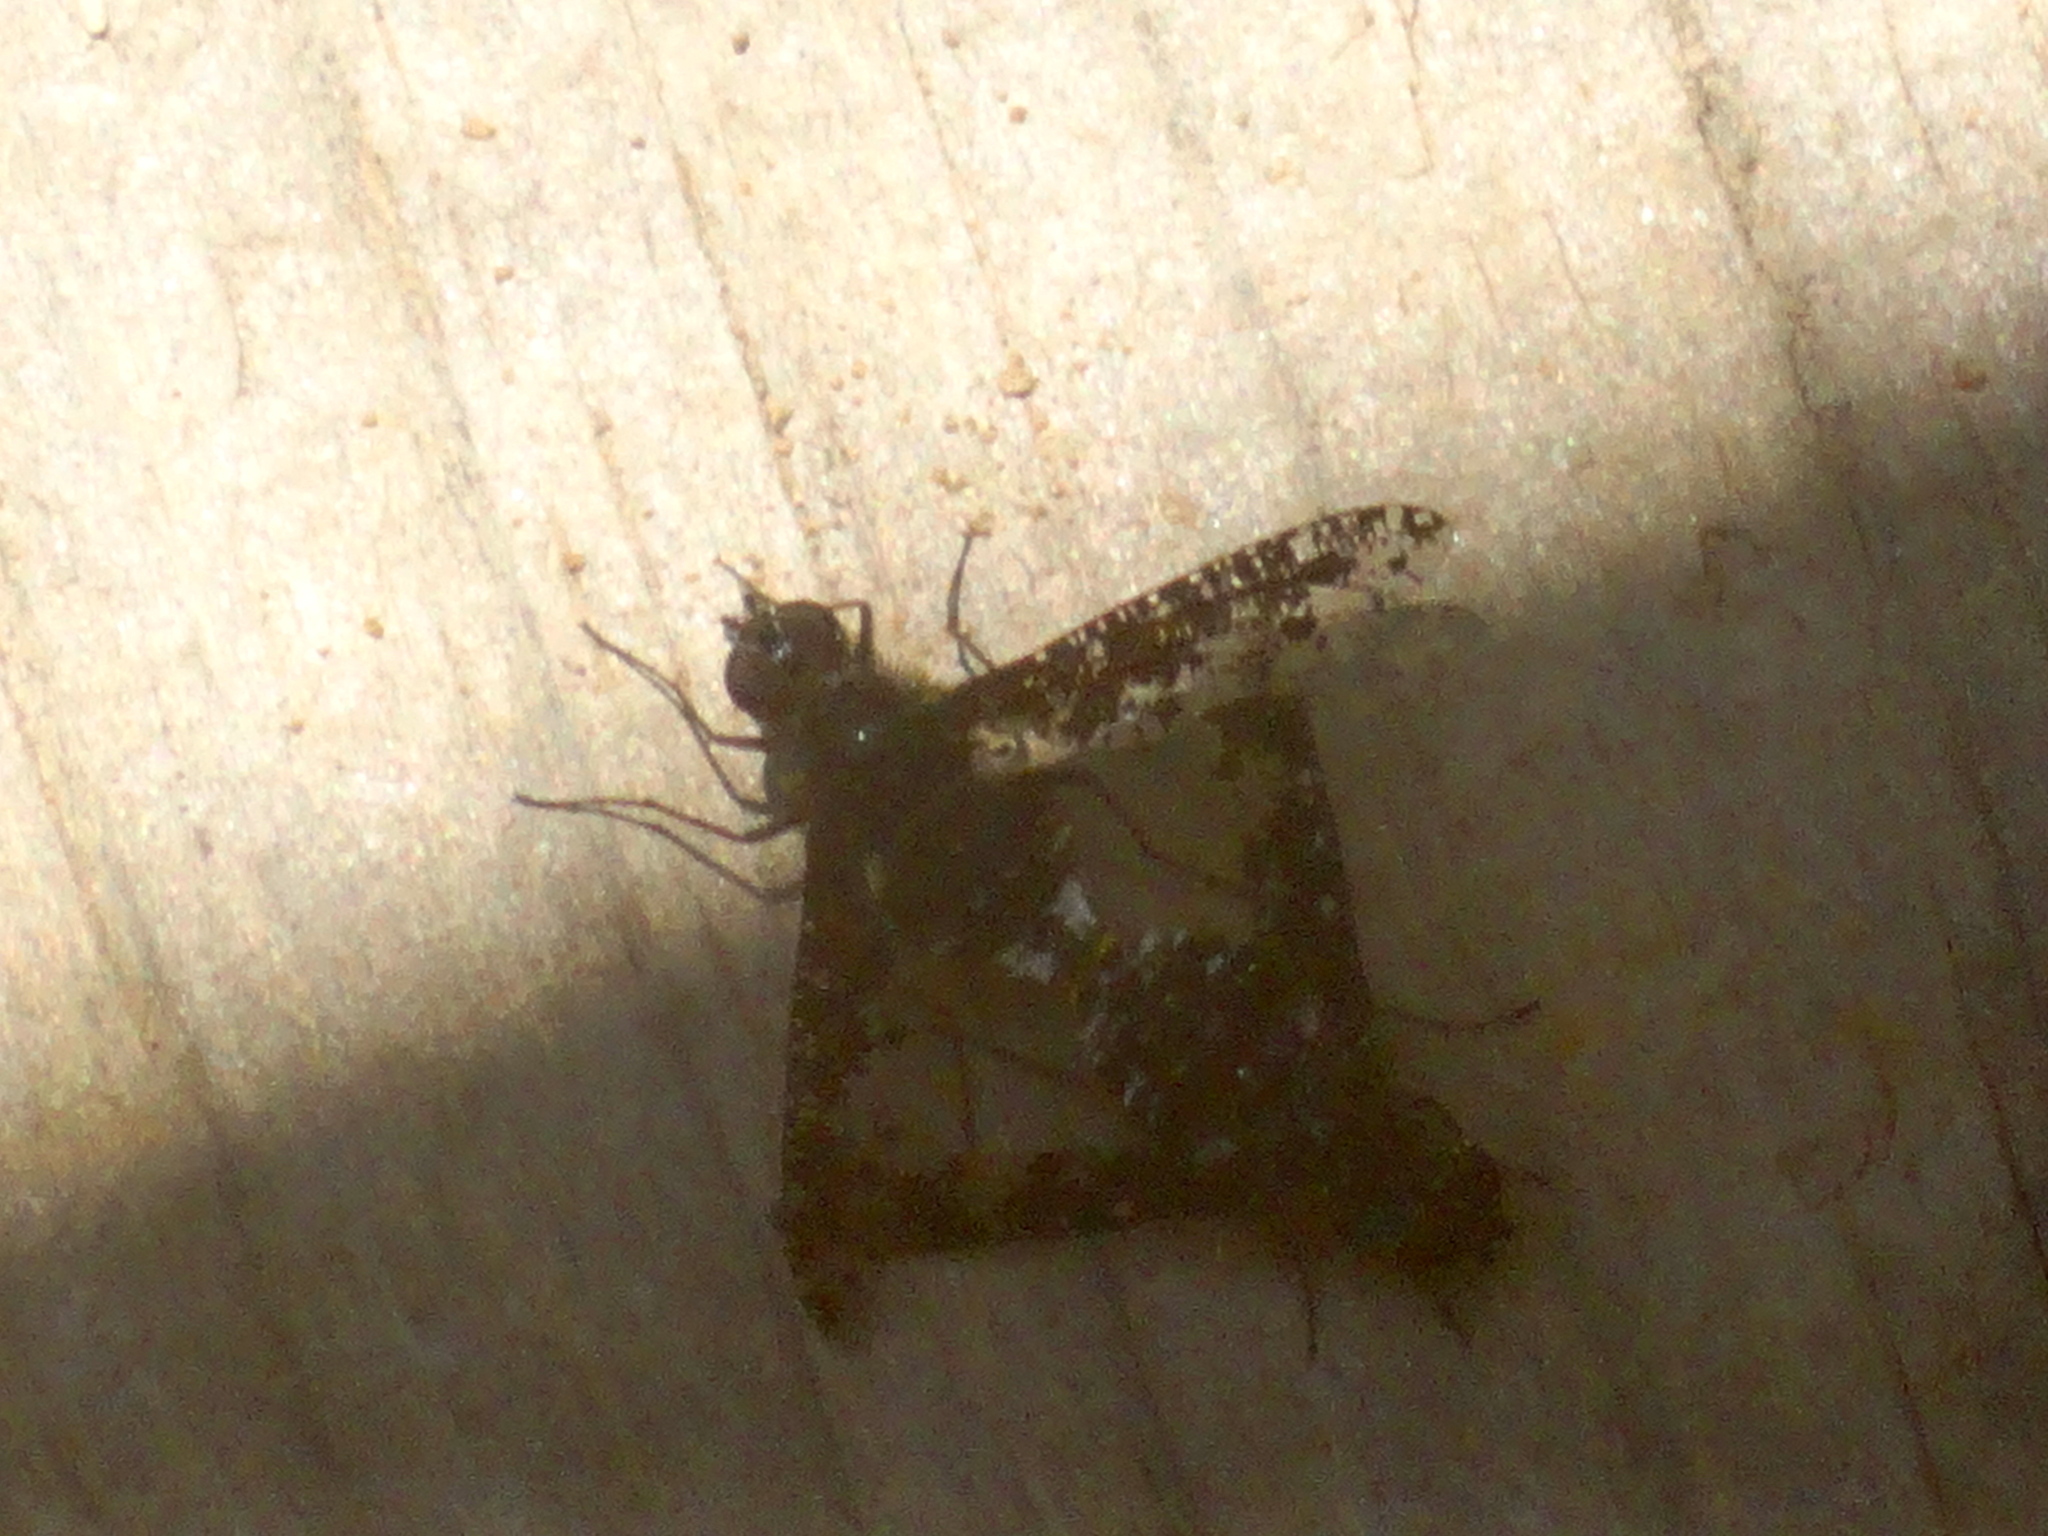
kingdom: Animalia
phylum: Arthropoda
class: Insecta
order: Diptera
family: Bombyliidae
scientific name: Bombyliidae
